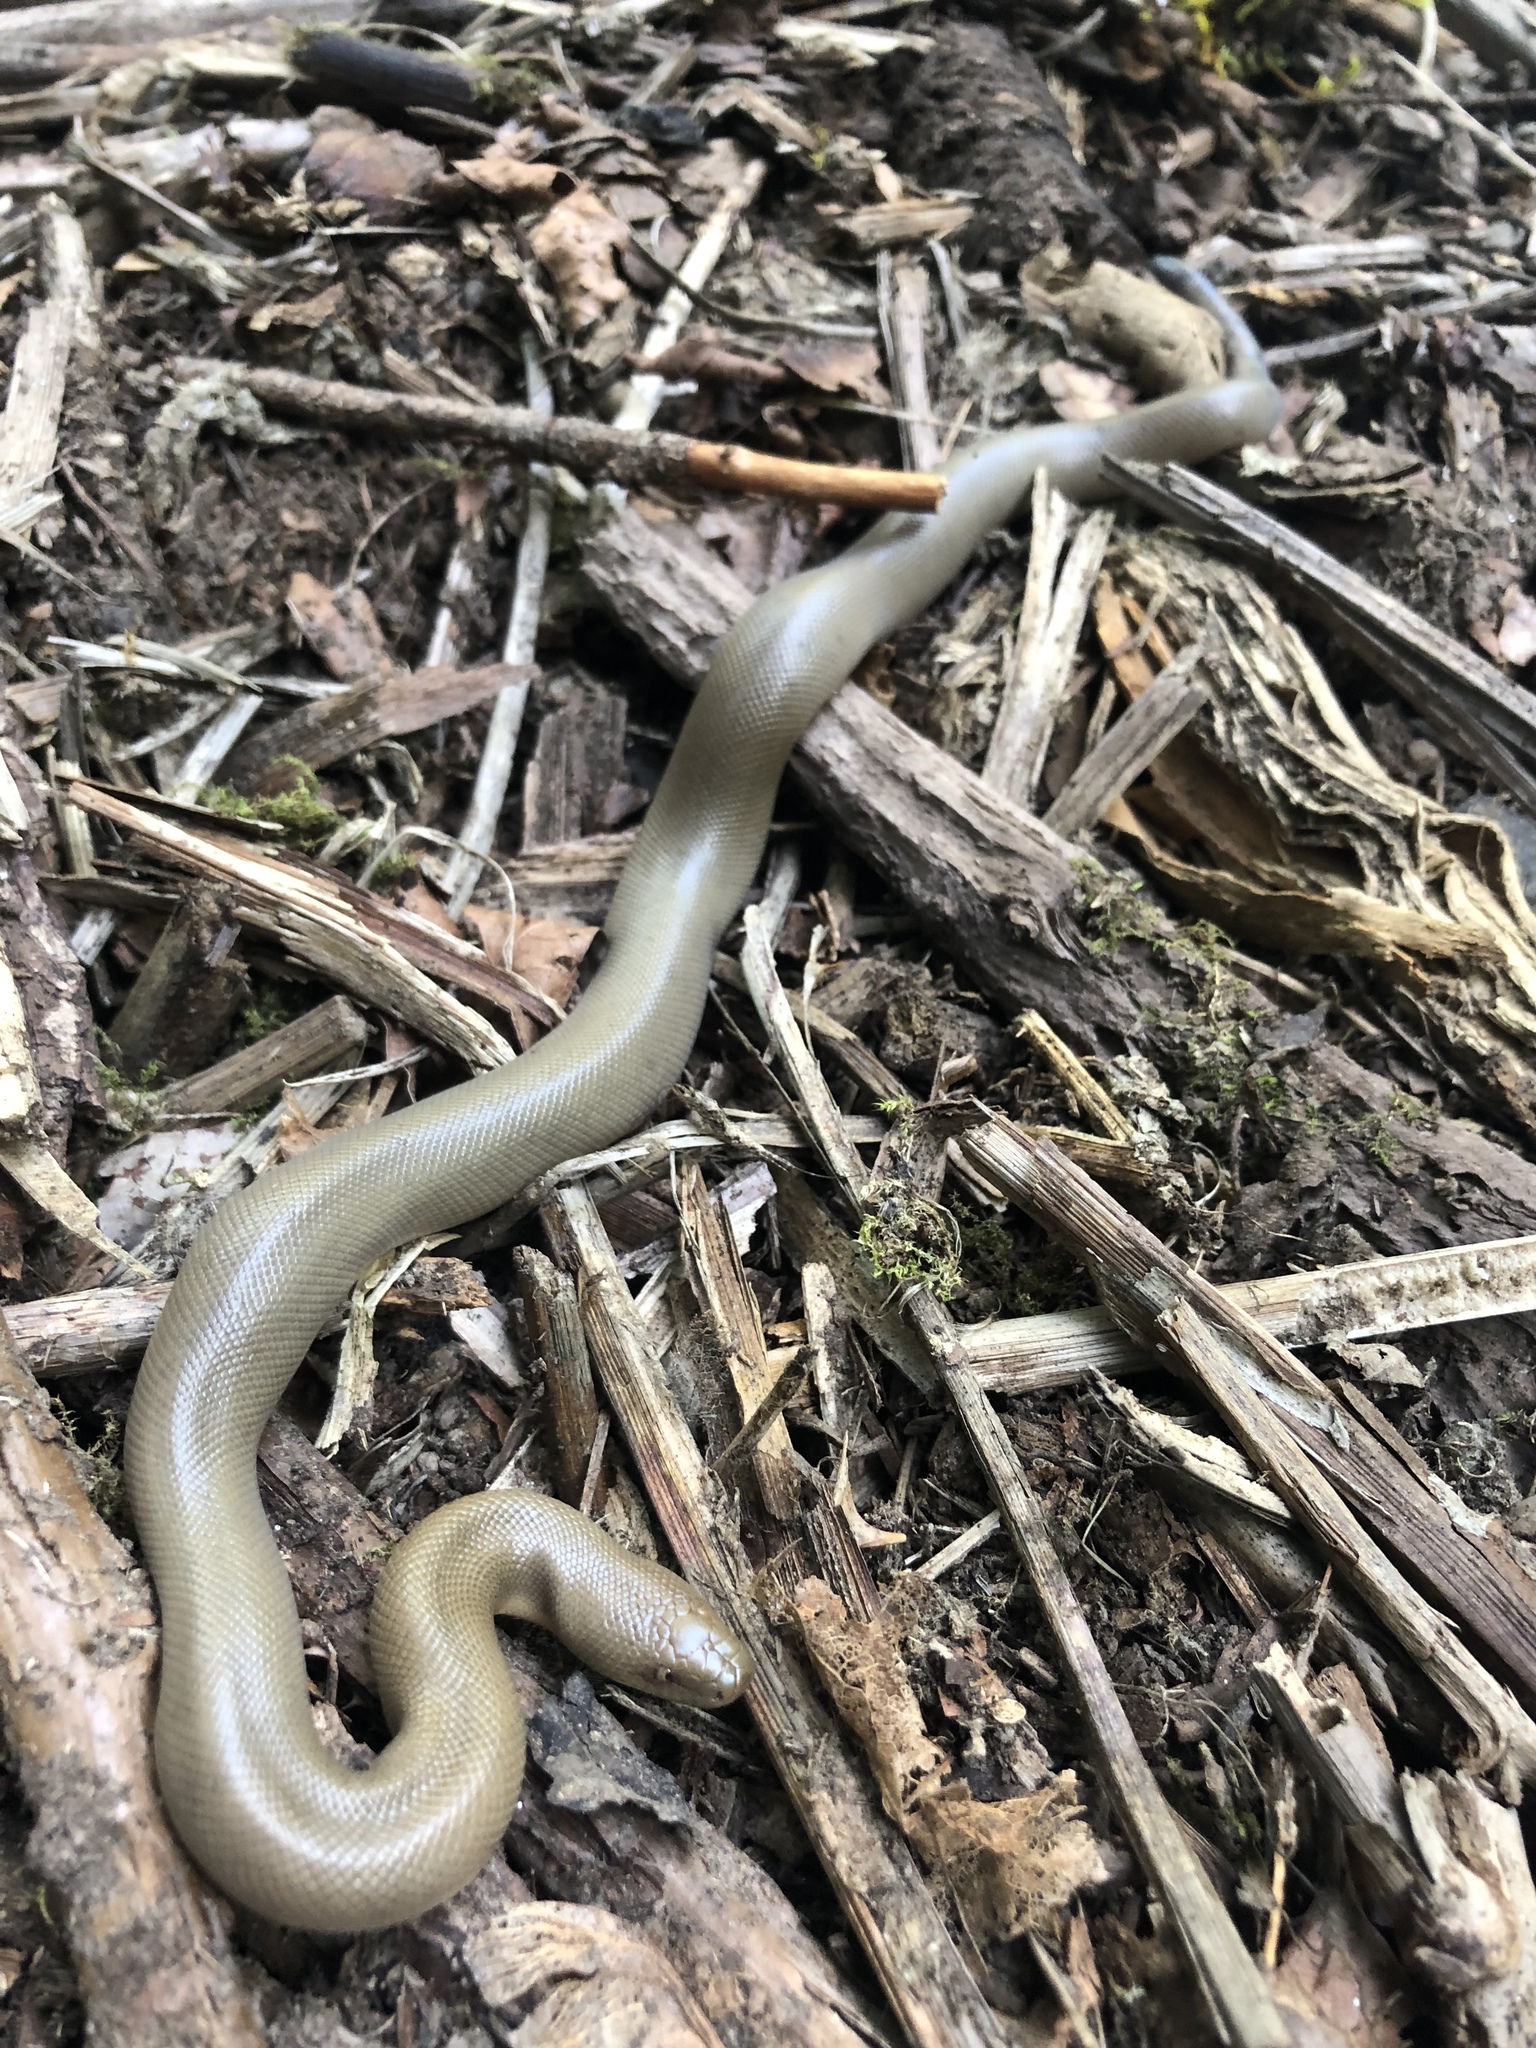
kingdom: Animalia
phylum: Chordata
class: Squamata
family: Boidae
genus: Charina
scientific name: Charina bottae
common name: Northern rubber boa
